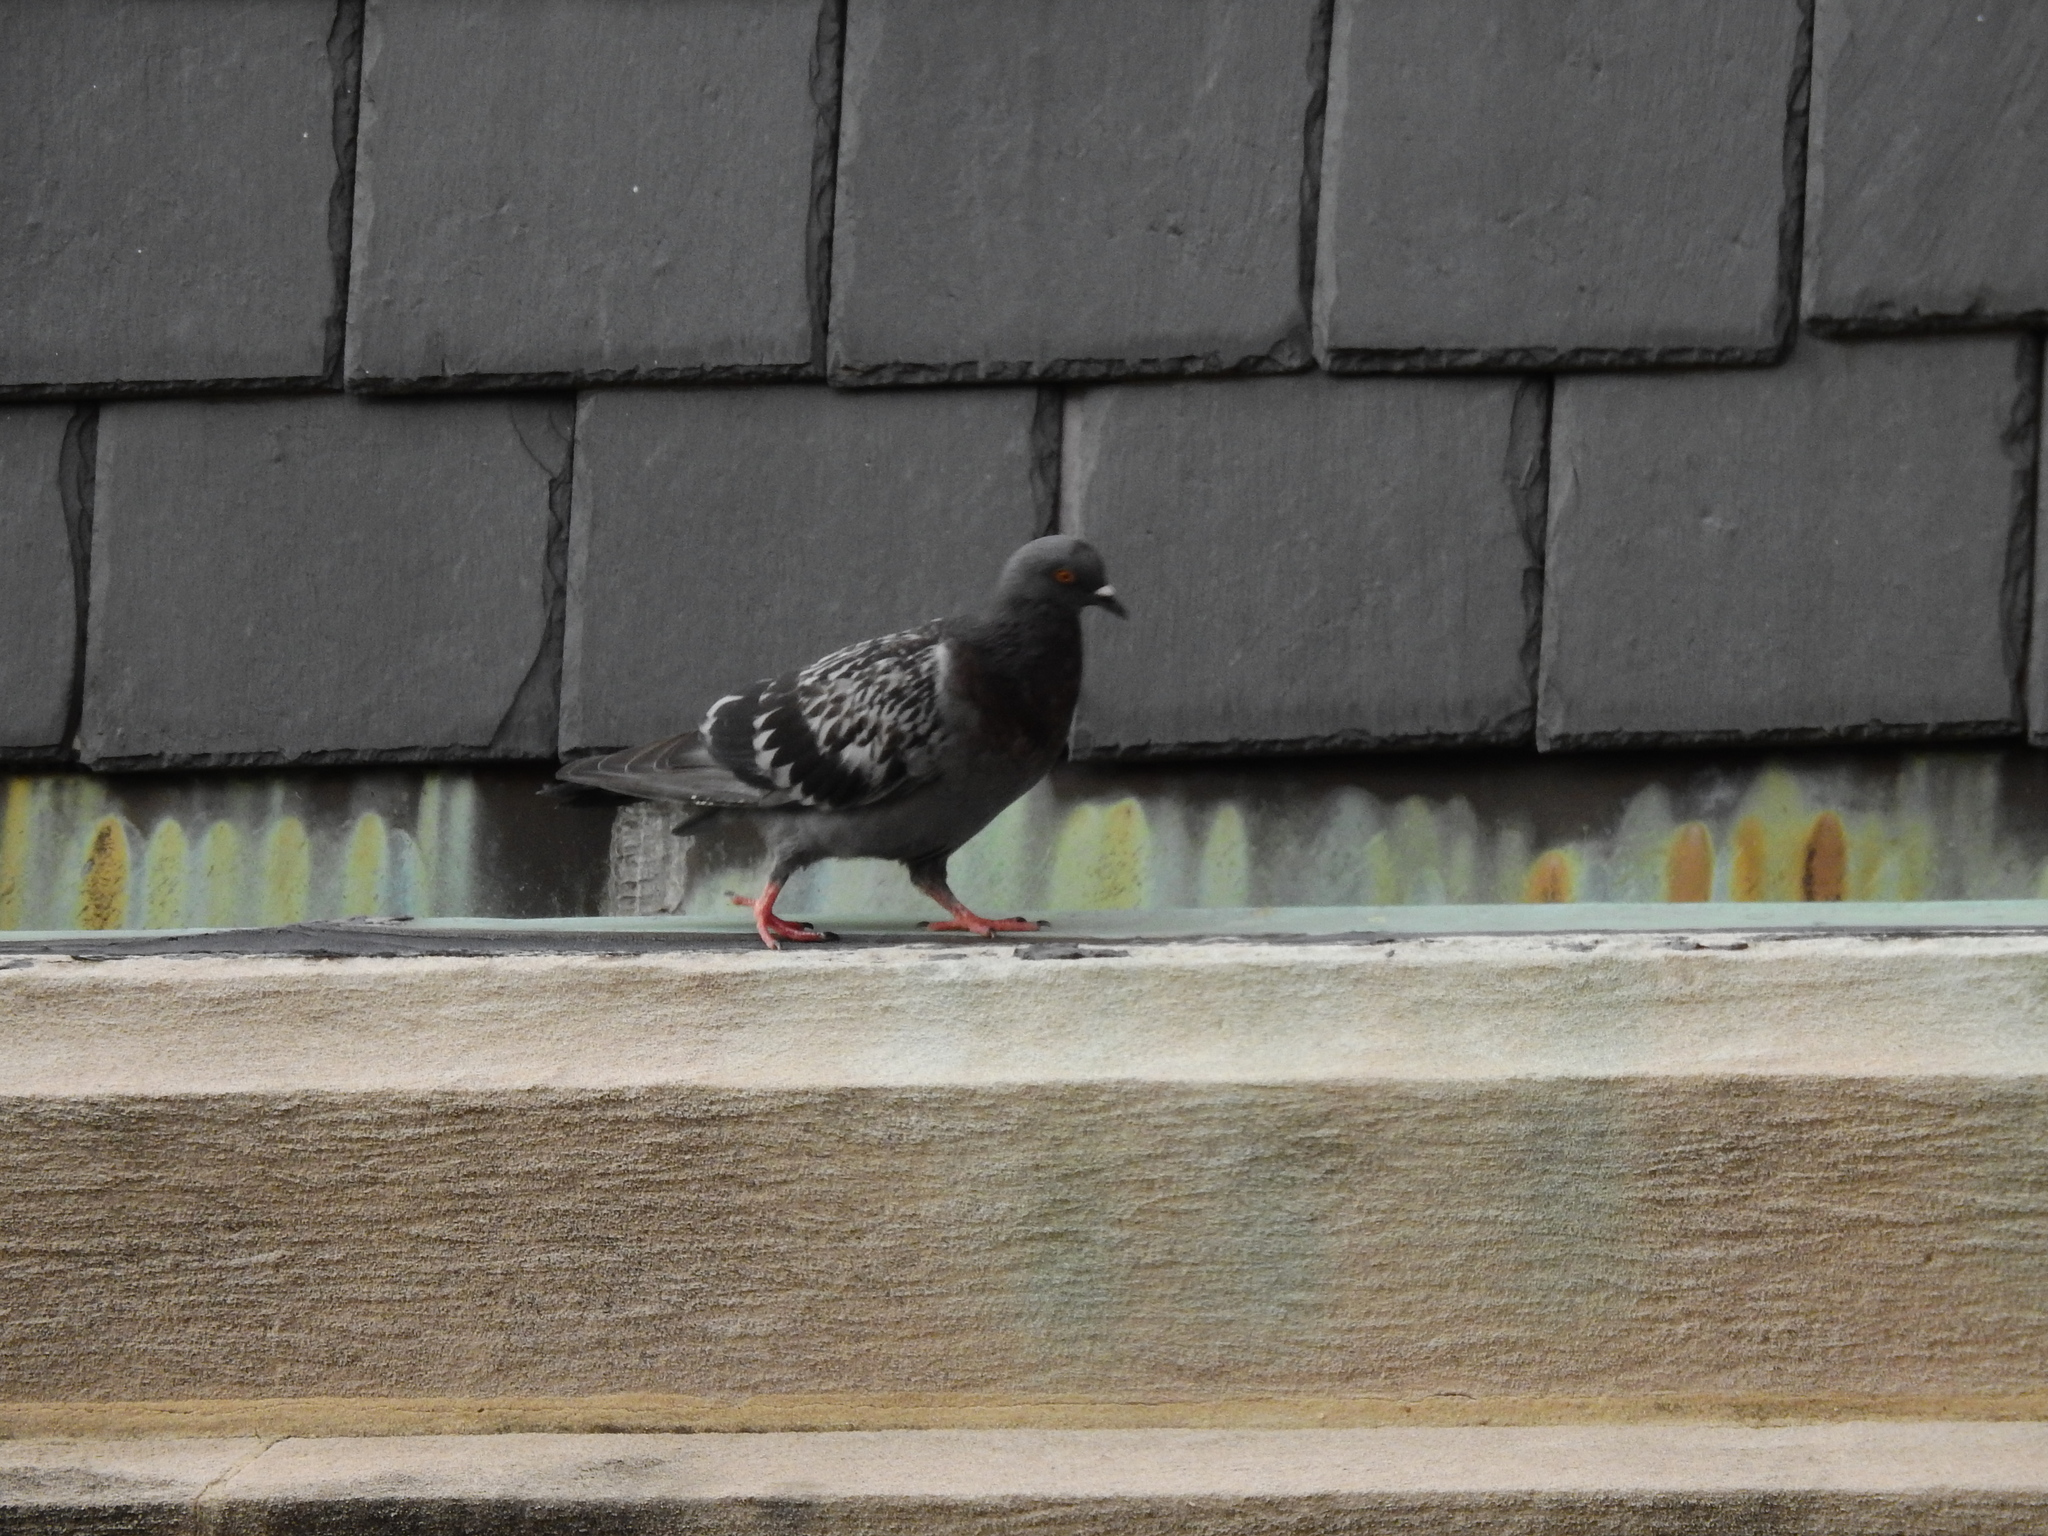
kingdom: Animalia
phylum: Chordata
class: Aves
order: Columbiformes
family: Columbidae
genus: Columba
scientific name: Columba livia
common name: Rock pigeon
